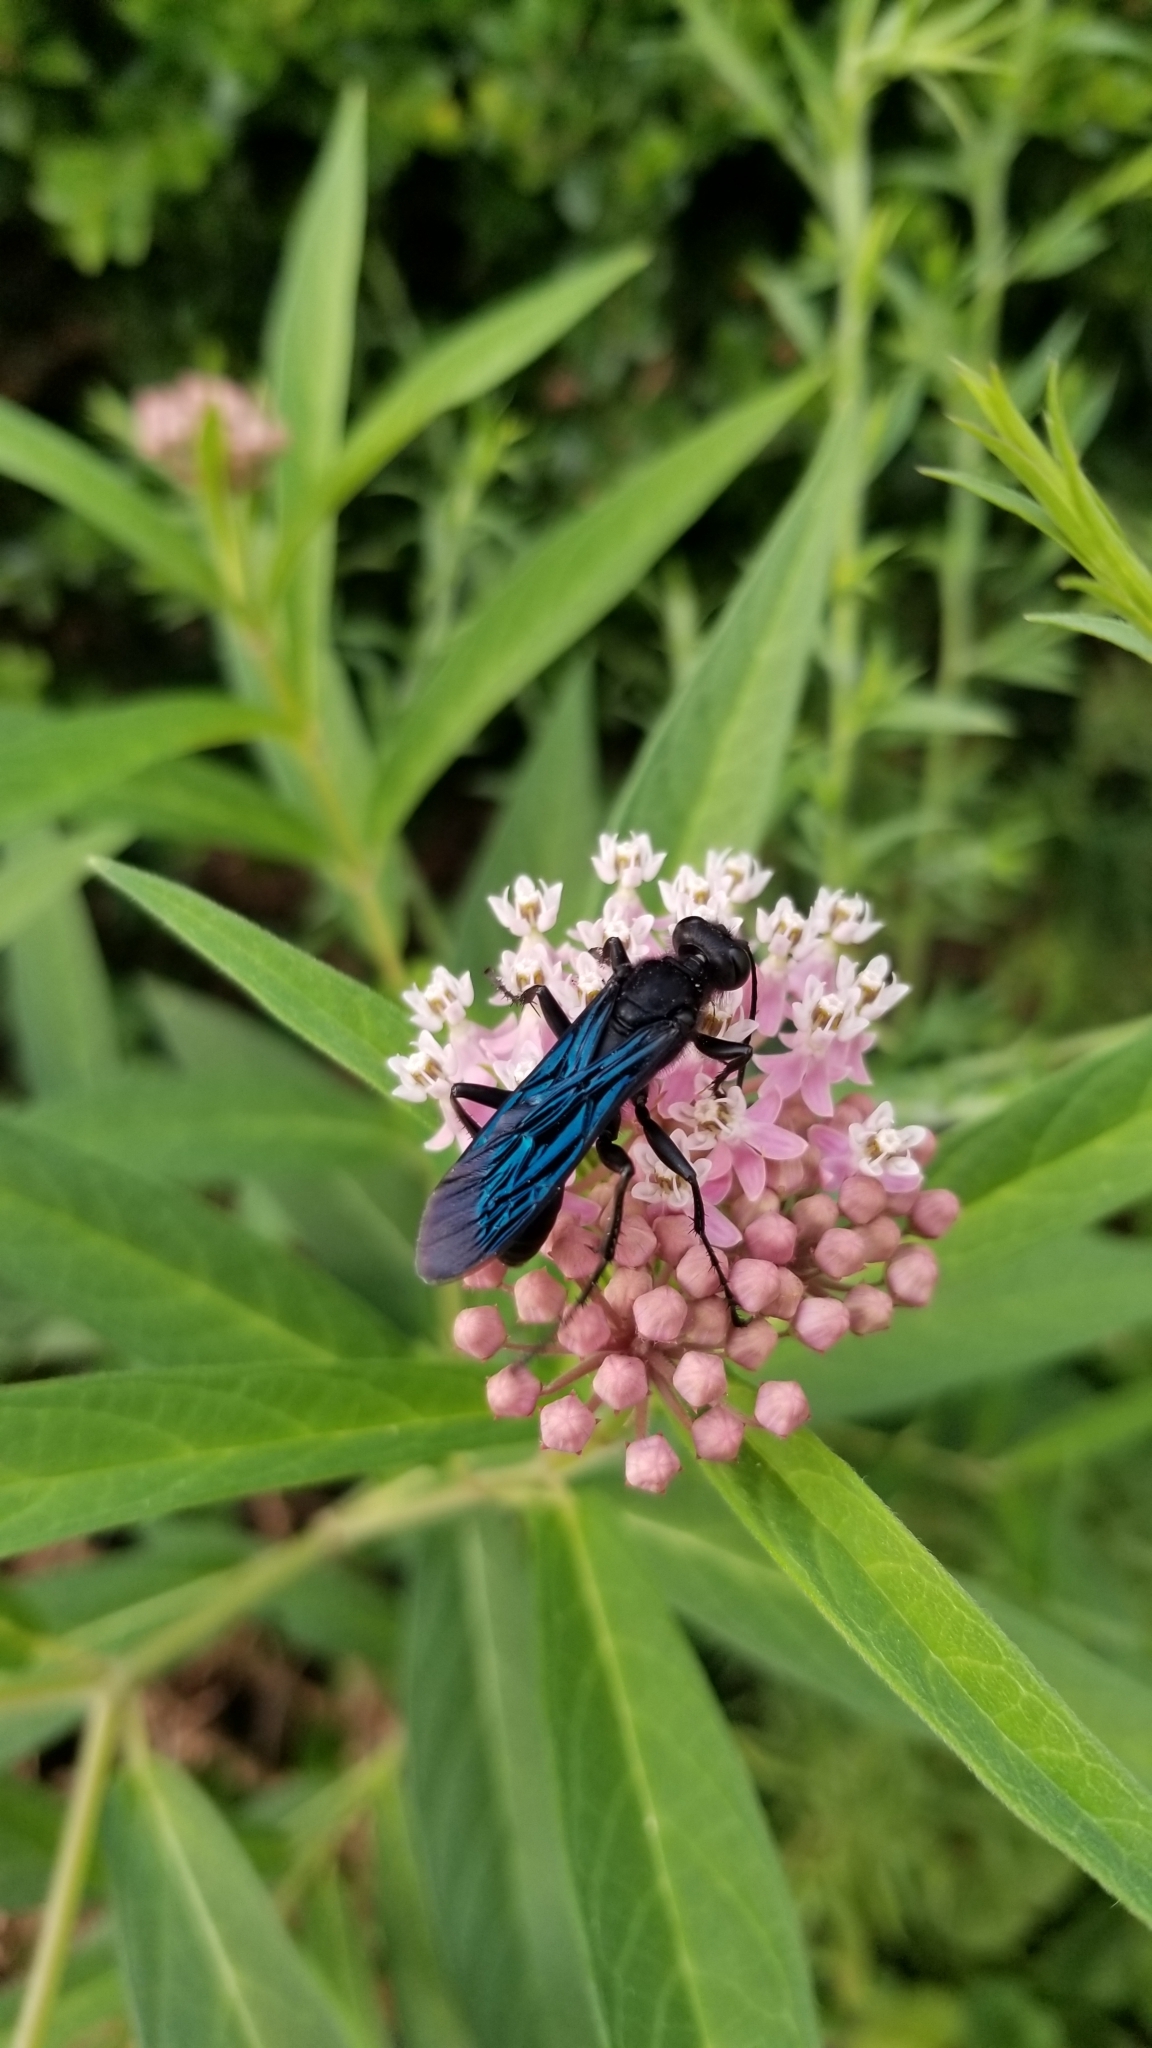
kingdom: Animalia
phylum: Arthropoda
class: Insecta
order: Hymenoptera
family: Sphecidae
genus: Sphex
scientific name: Sphex pensylvanicus
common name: Great black digger wasp
